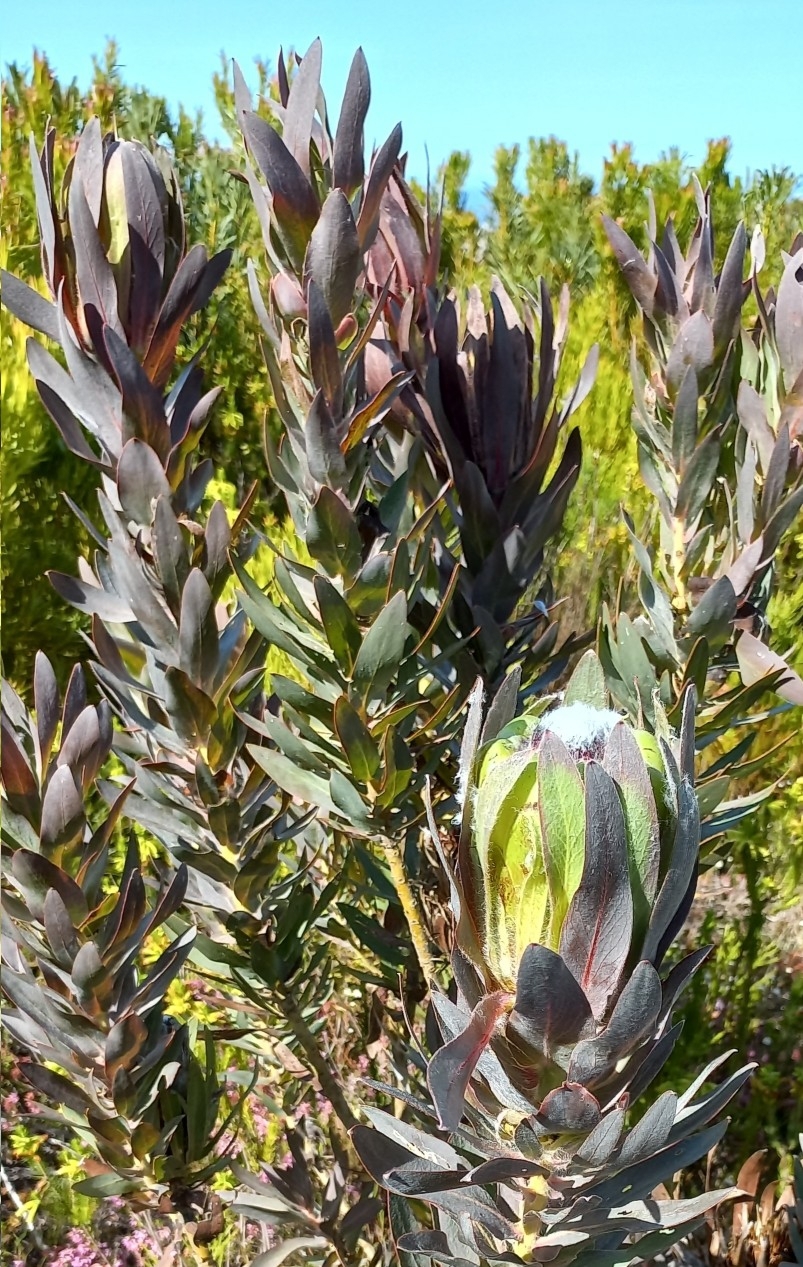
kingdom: Plantae
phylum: Tracheophyta
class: Magnoliopsida
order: Proteales
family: Proteaceae
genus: Protea
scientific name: Protea coronata
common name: Green sugarbush
